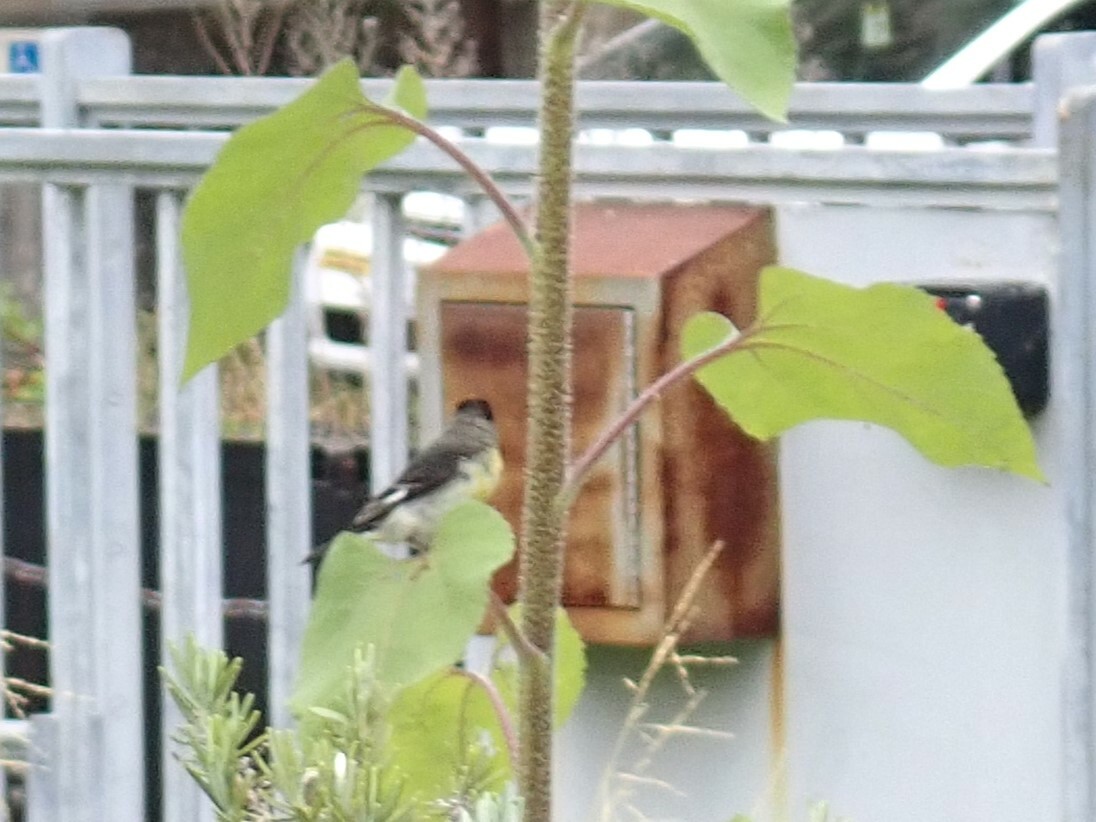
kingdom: Animalia
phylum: Chordata
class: Aves
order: Passeriformes
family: Fringillidae
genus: Spinus
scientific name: Spinus psaltria
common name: Lesser goldfinch
